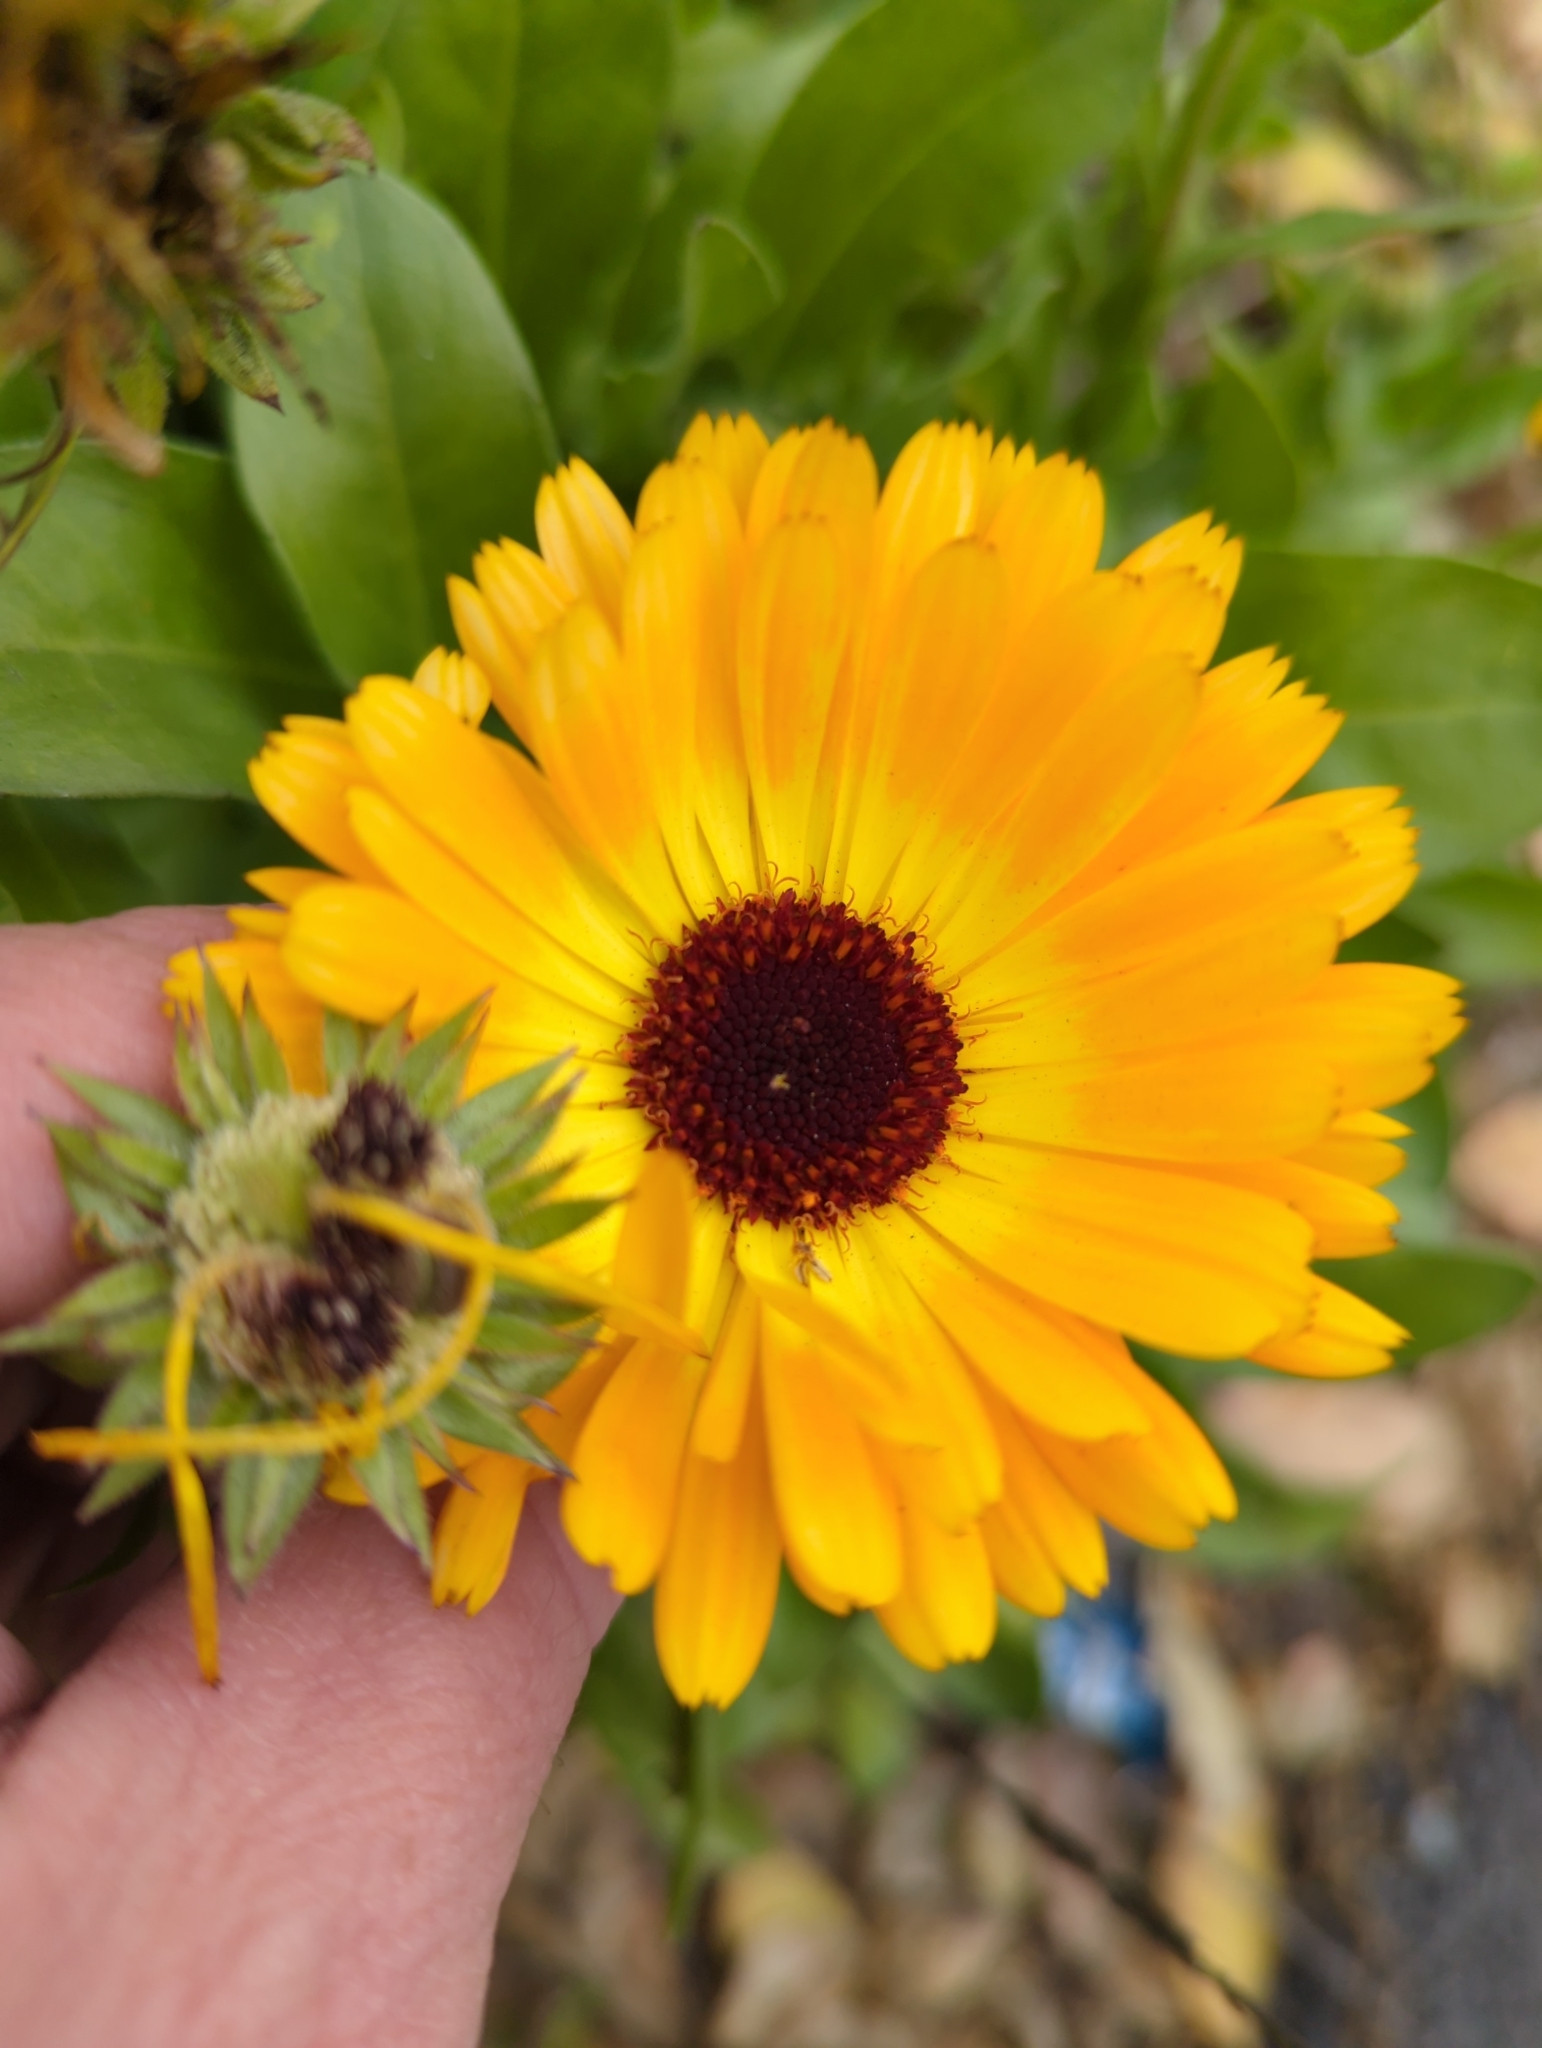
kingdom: Plantae
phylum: Tracheophyta
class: Magnoliopsida
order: Asterales
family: Asteraceae
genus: Calendula
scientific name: Calendula officinalis
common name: Pot marigold
